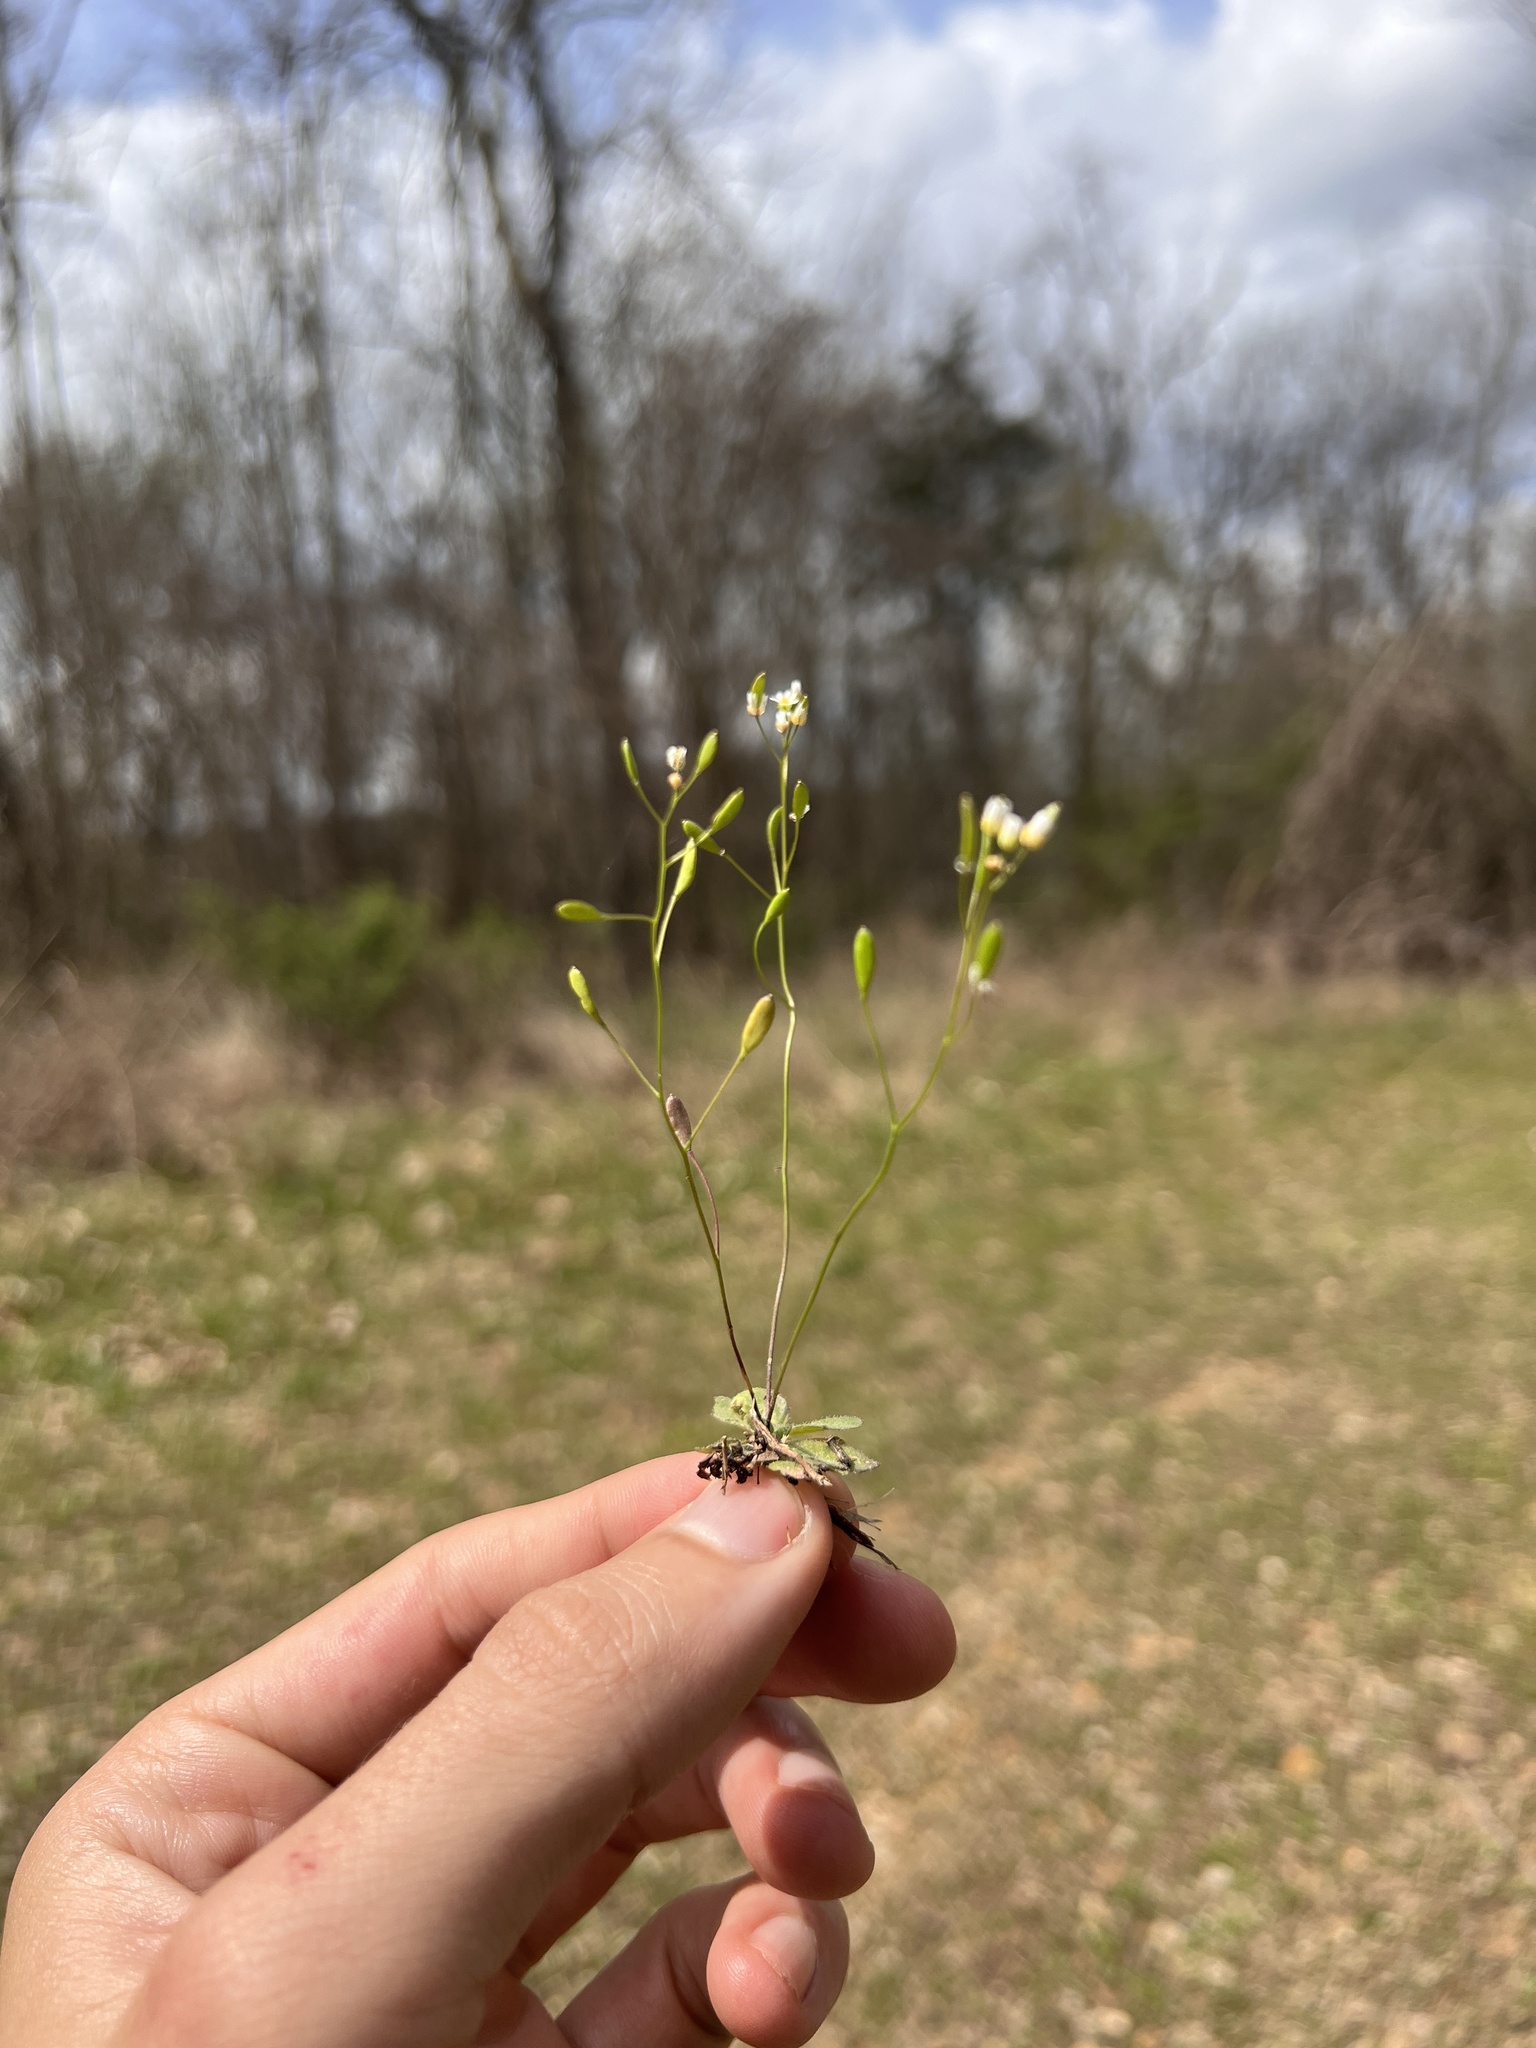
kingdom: Plantae
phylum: Tracheophyta
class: Magnoliopsida
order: Brassicales
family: Brassicaceae
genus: Draba
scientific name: Draba verna
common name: Spring draba
